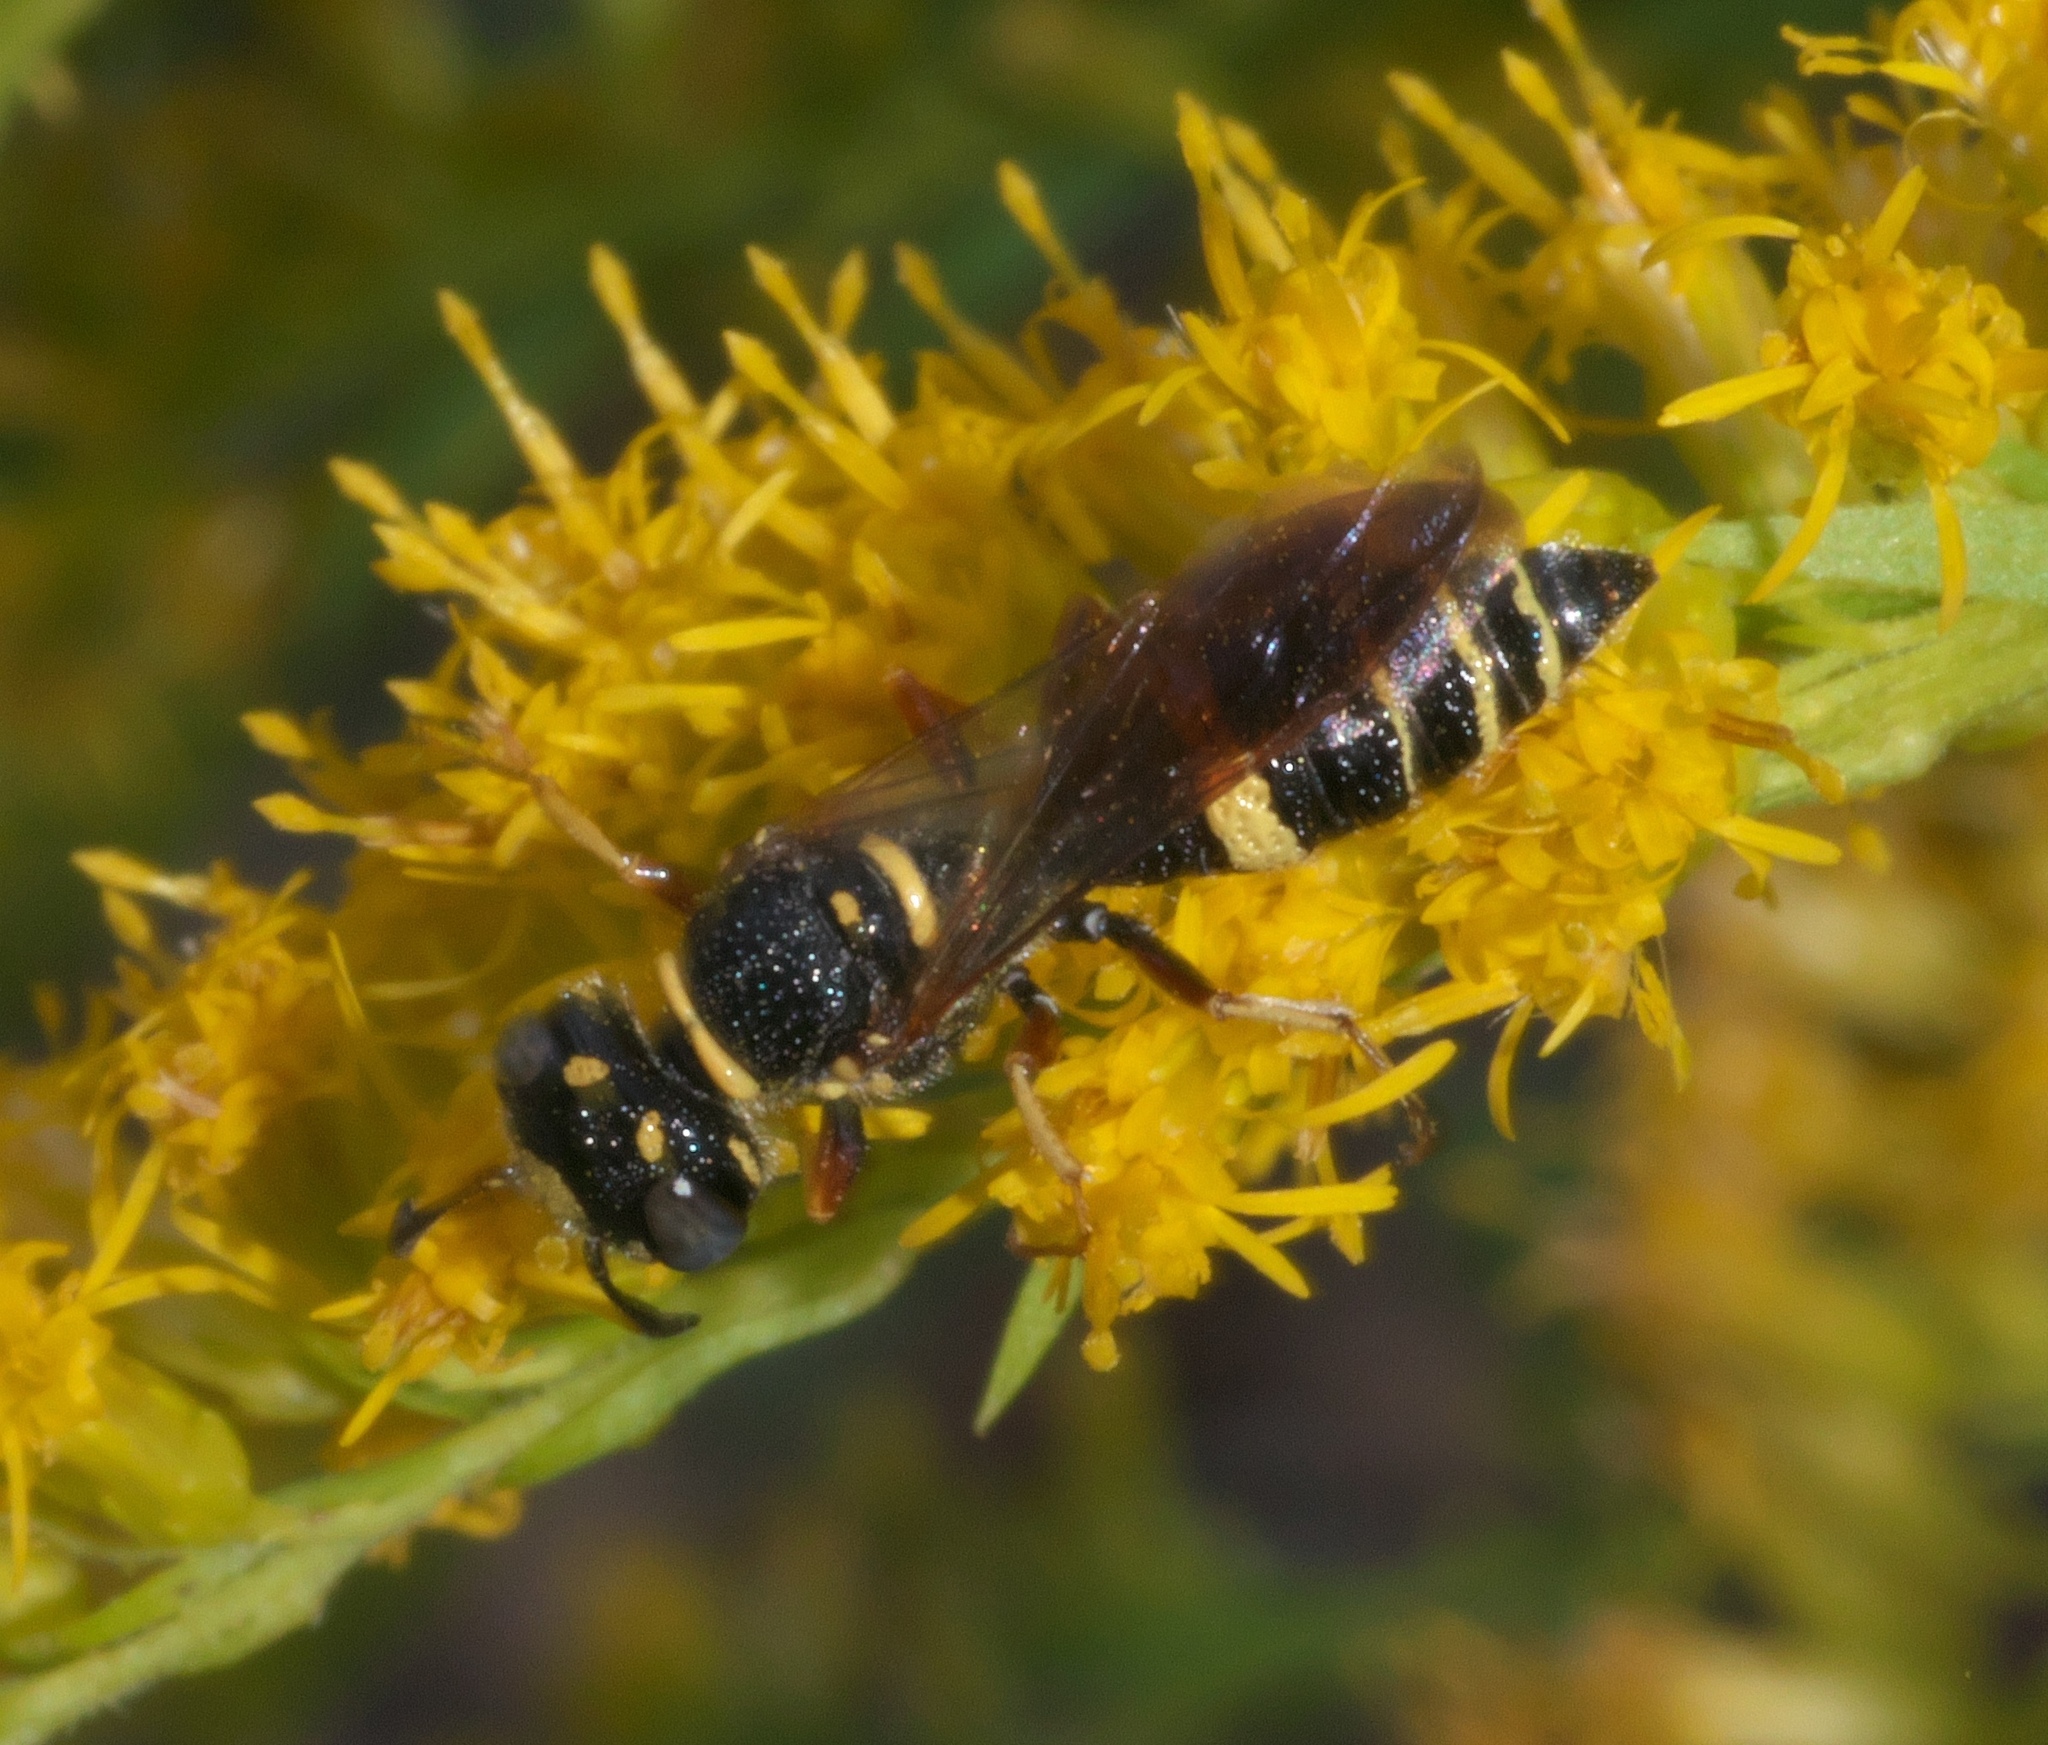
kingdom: Animalia
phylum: Arthropoda
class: Insecta
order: Hymenoptera
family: Crabronidae
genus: Philanthus
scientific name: Philanthus gibbosus
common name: Humped beewolf
